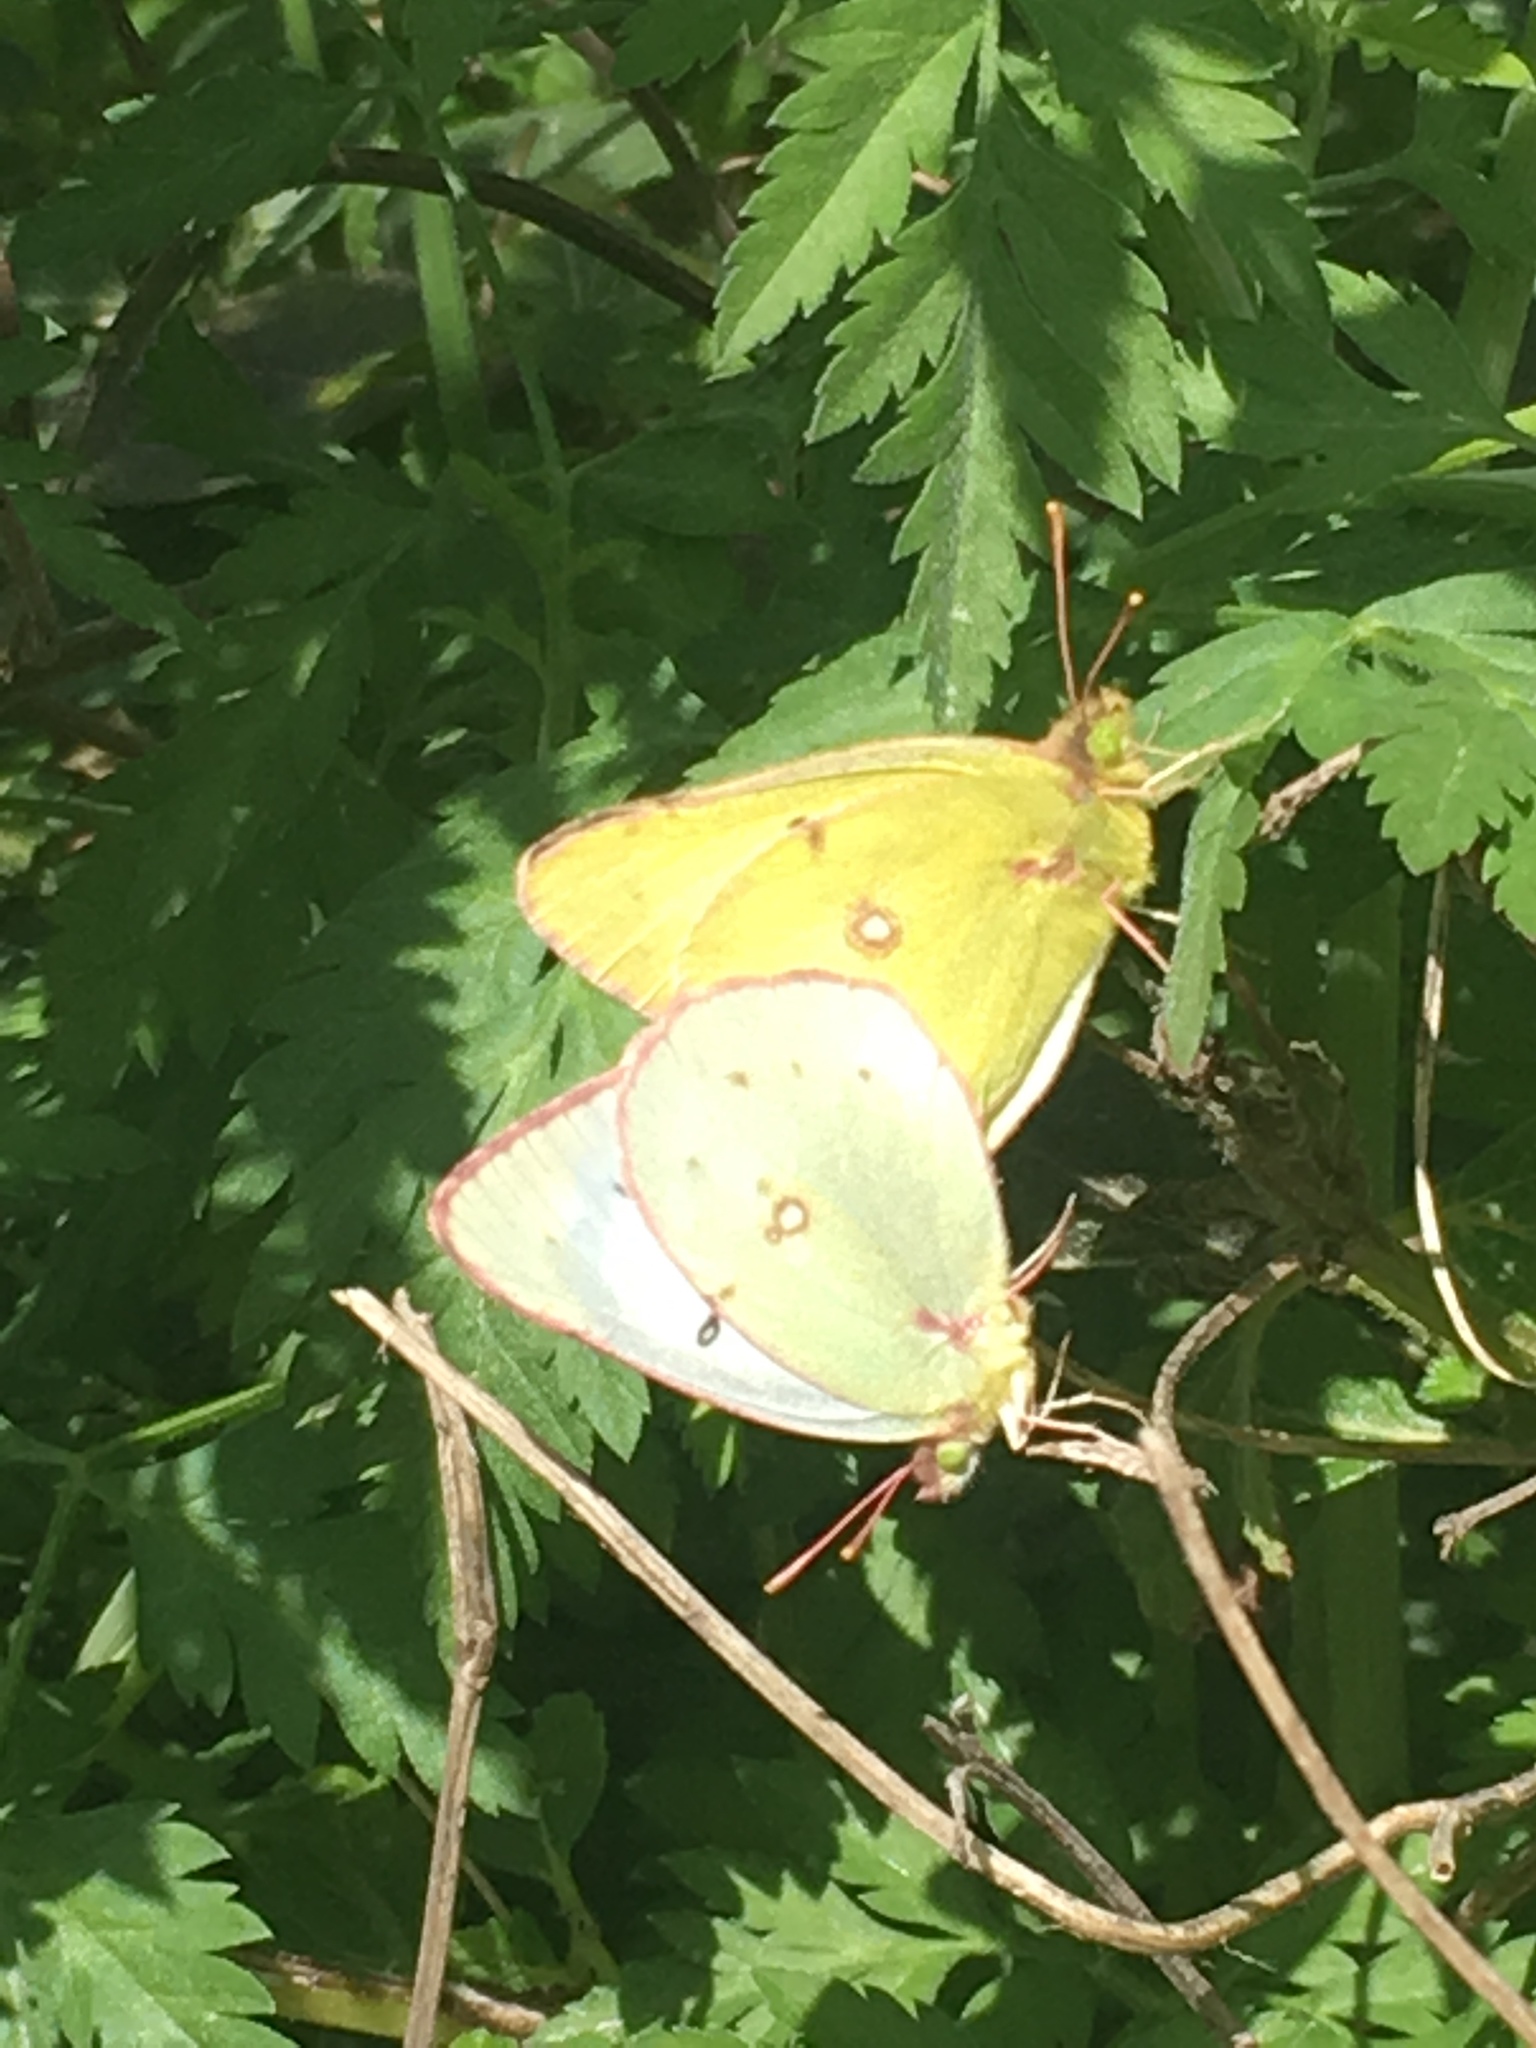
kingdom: Animalia
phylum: Arthropoda
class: Insecta
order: Lepidoptera
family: Pieridae
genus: Colias
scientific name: Colias eurytheme
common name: Alfalfa butterfly
